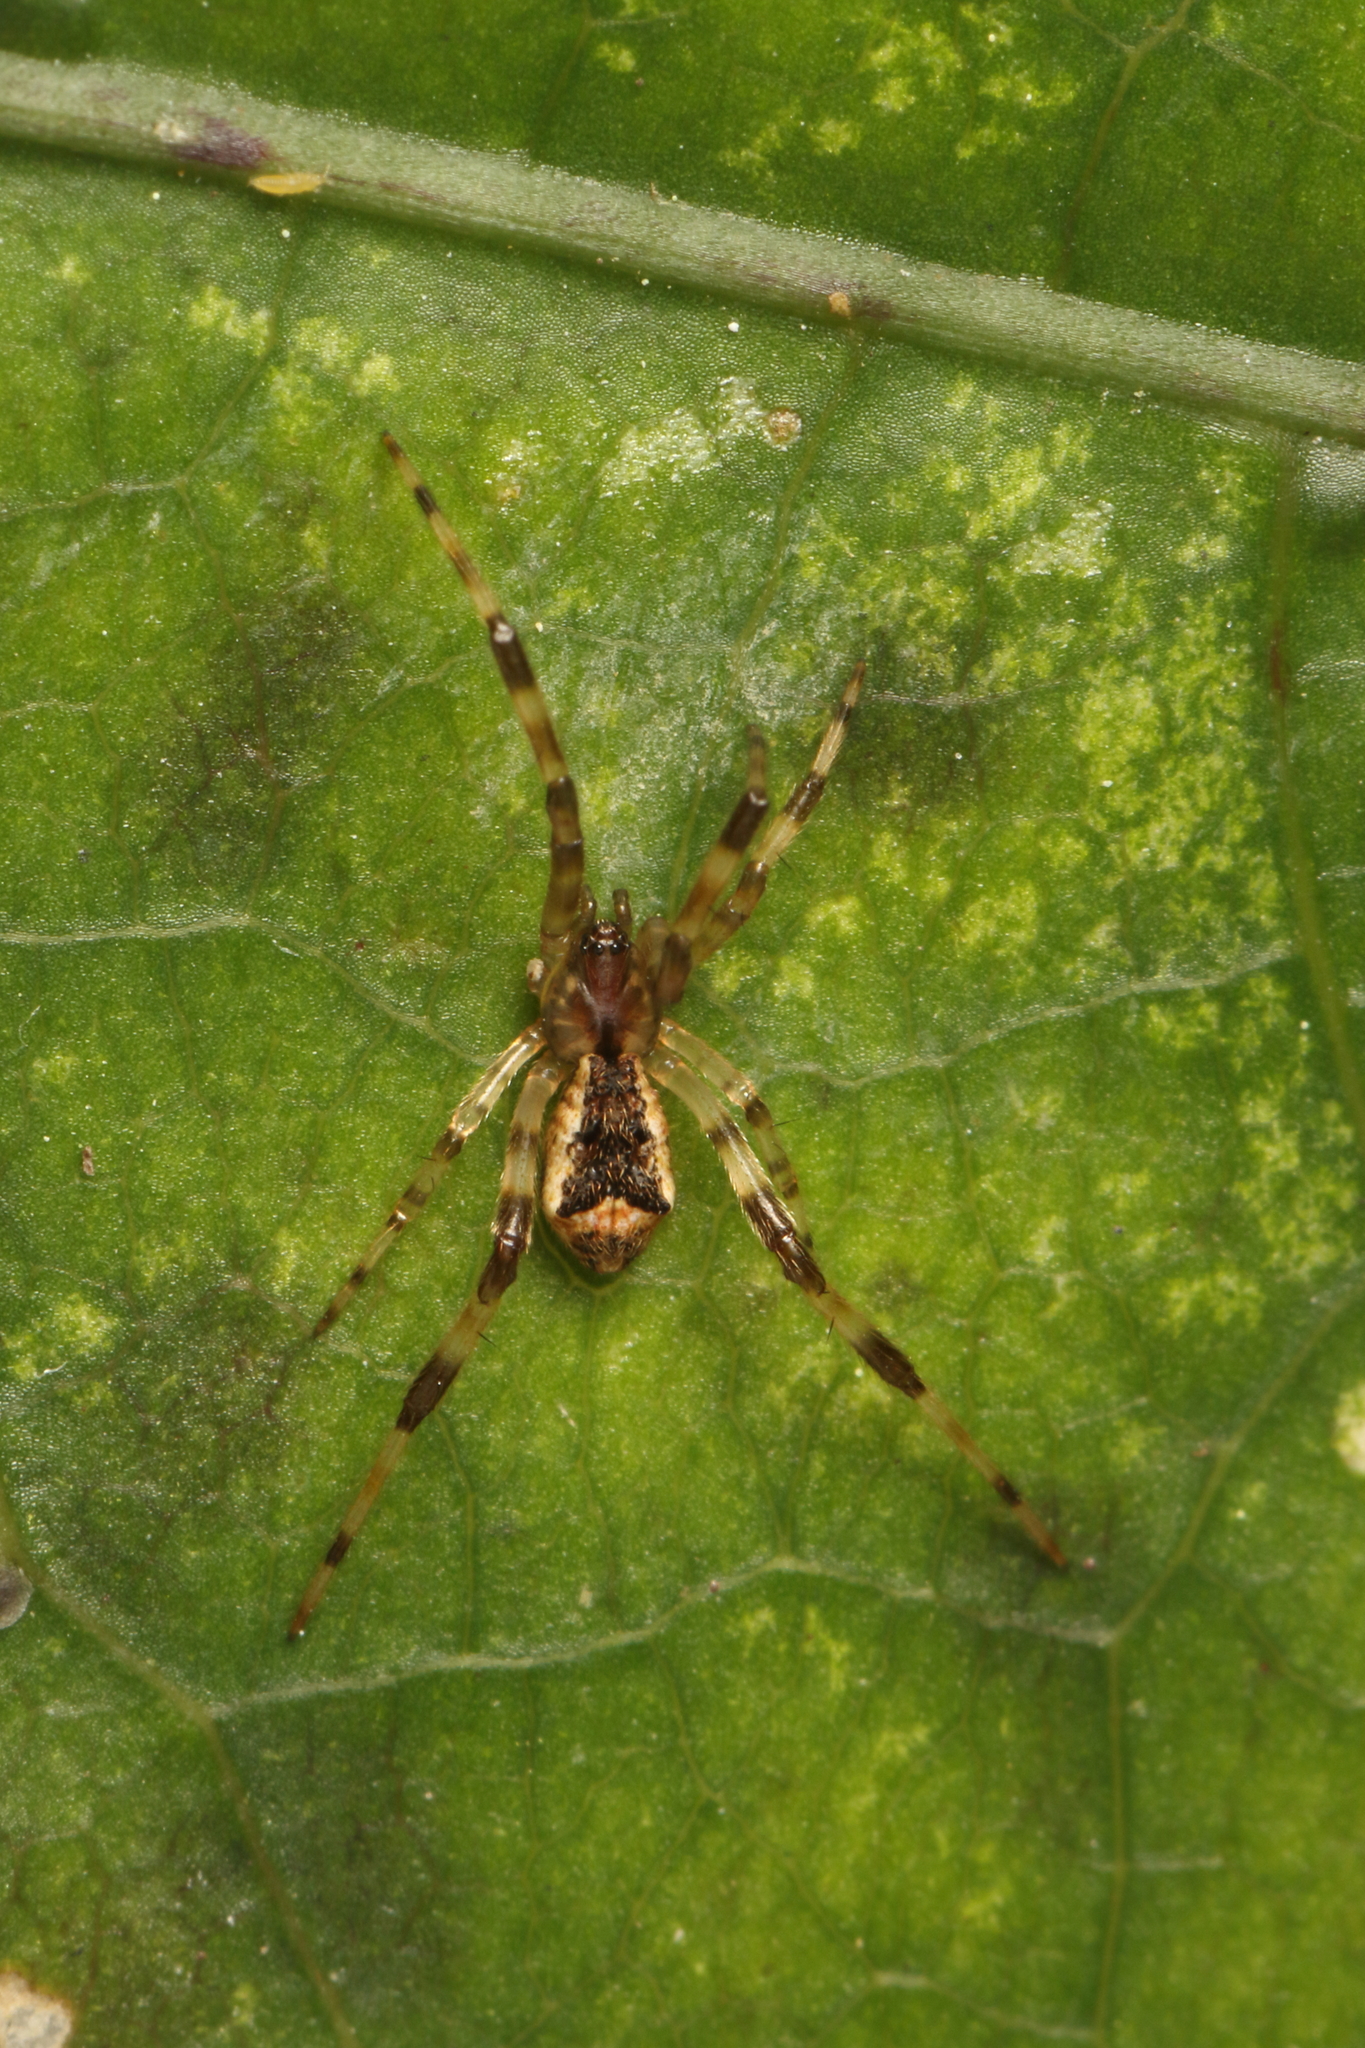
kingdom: Animalia
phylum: Arthropoda
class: Arachnida
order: Araneae
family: Theridiidae
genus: Episinus
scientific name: Episinus antipodianus
